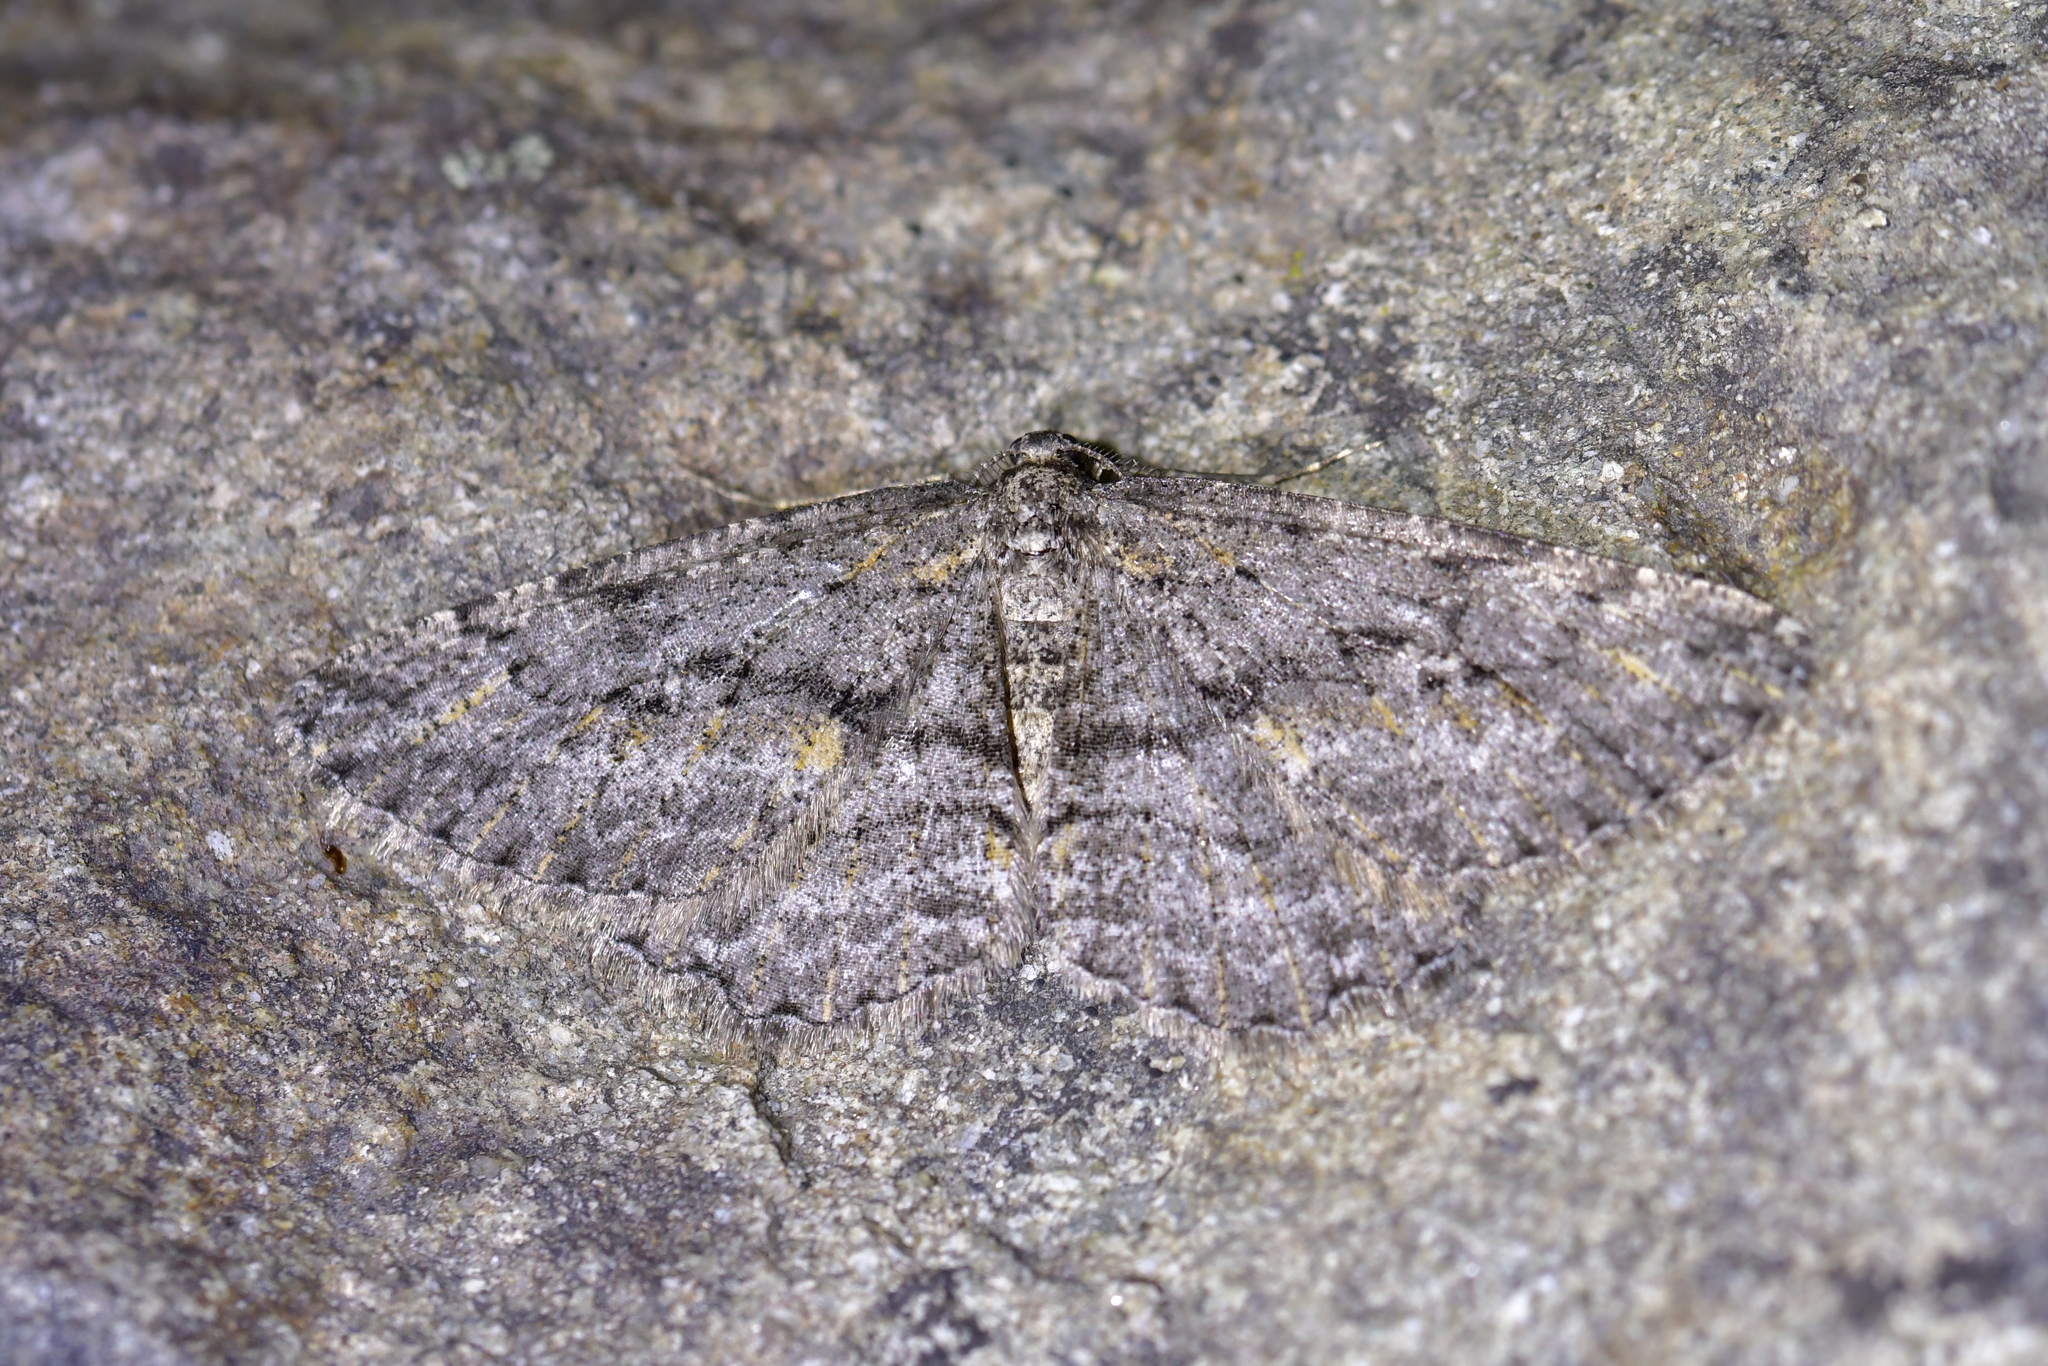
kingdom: Animalia
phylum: Arthropoda
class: Insecta
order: Lepidoptera
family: Geometridae
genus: Zermizinga
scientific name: Zermizinga indocilisaria
